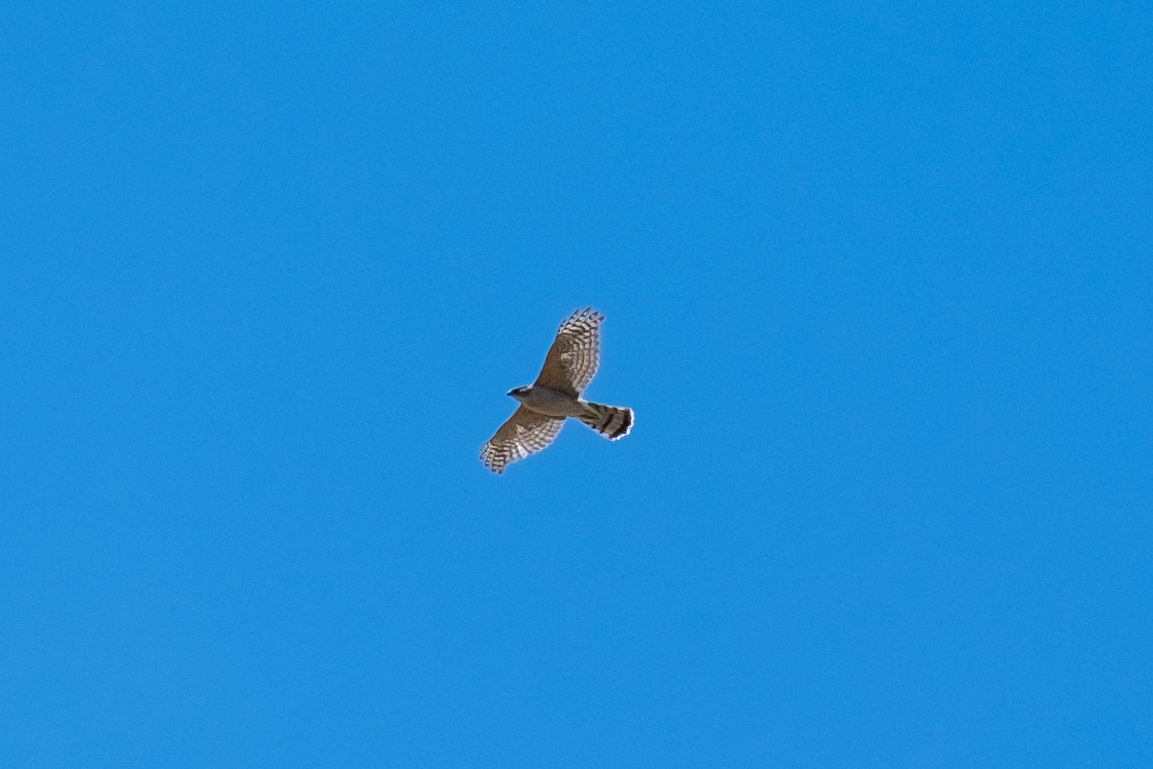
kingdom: Animalia
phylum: Chordata
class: Aves
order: Accipitriformes
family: Accipitridae
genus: Accipiter
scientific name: Accipiter cooperii
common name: Cooper's hawk
